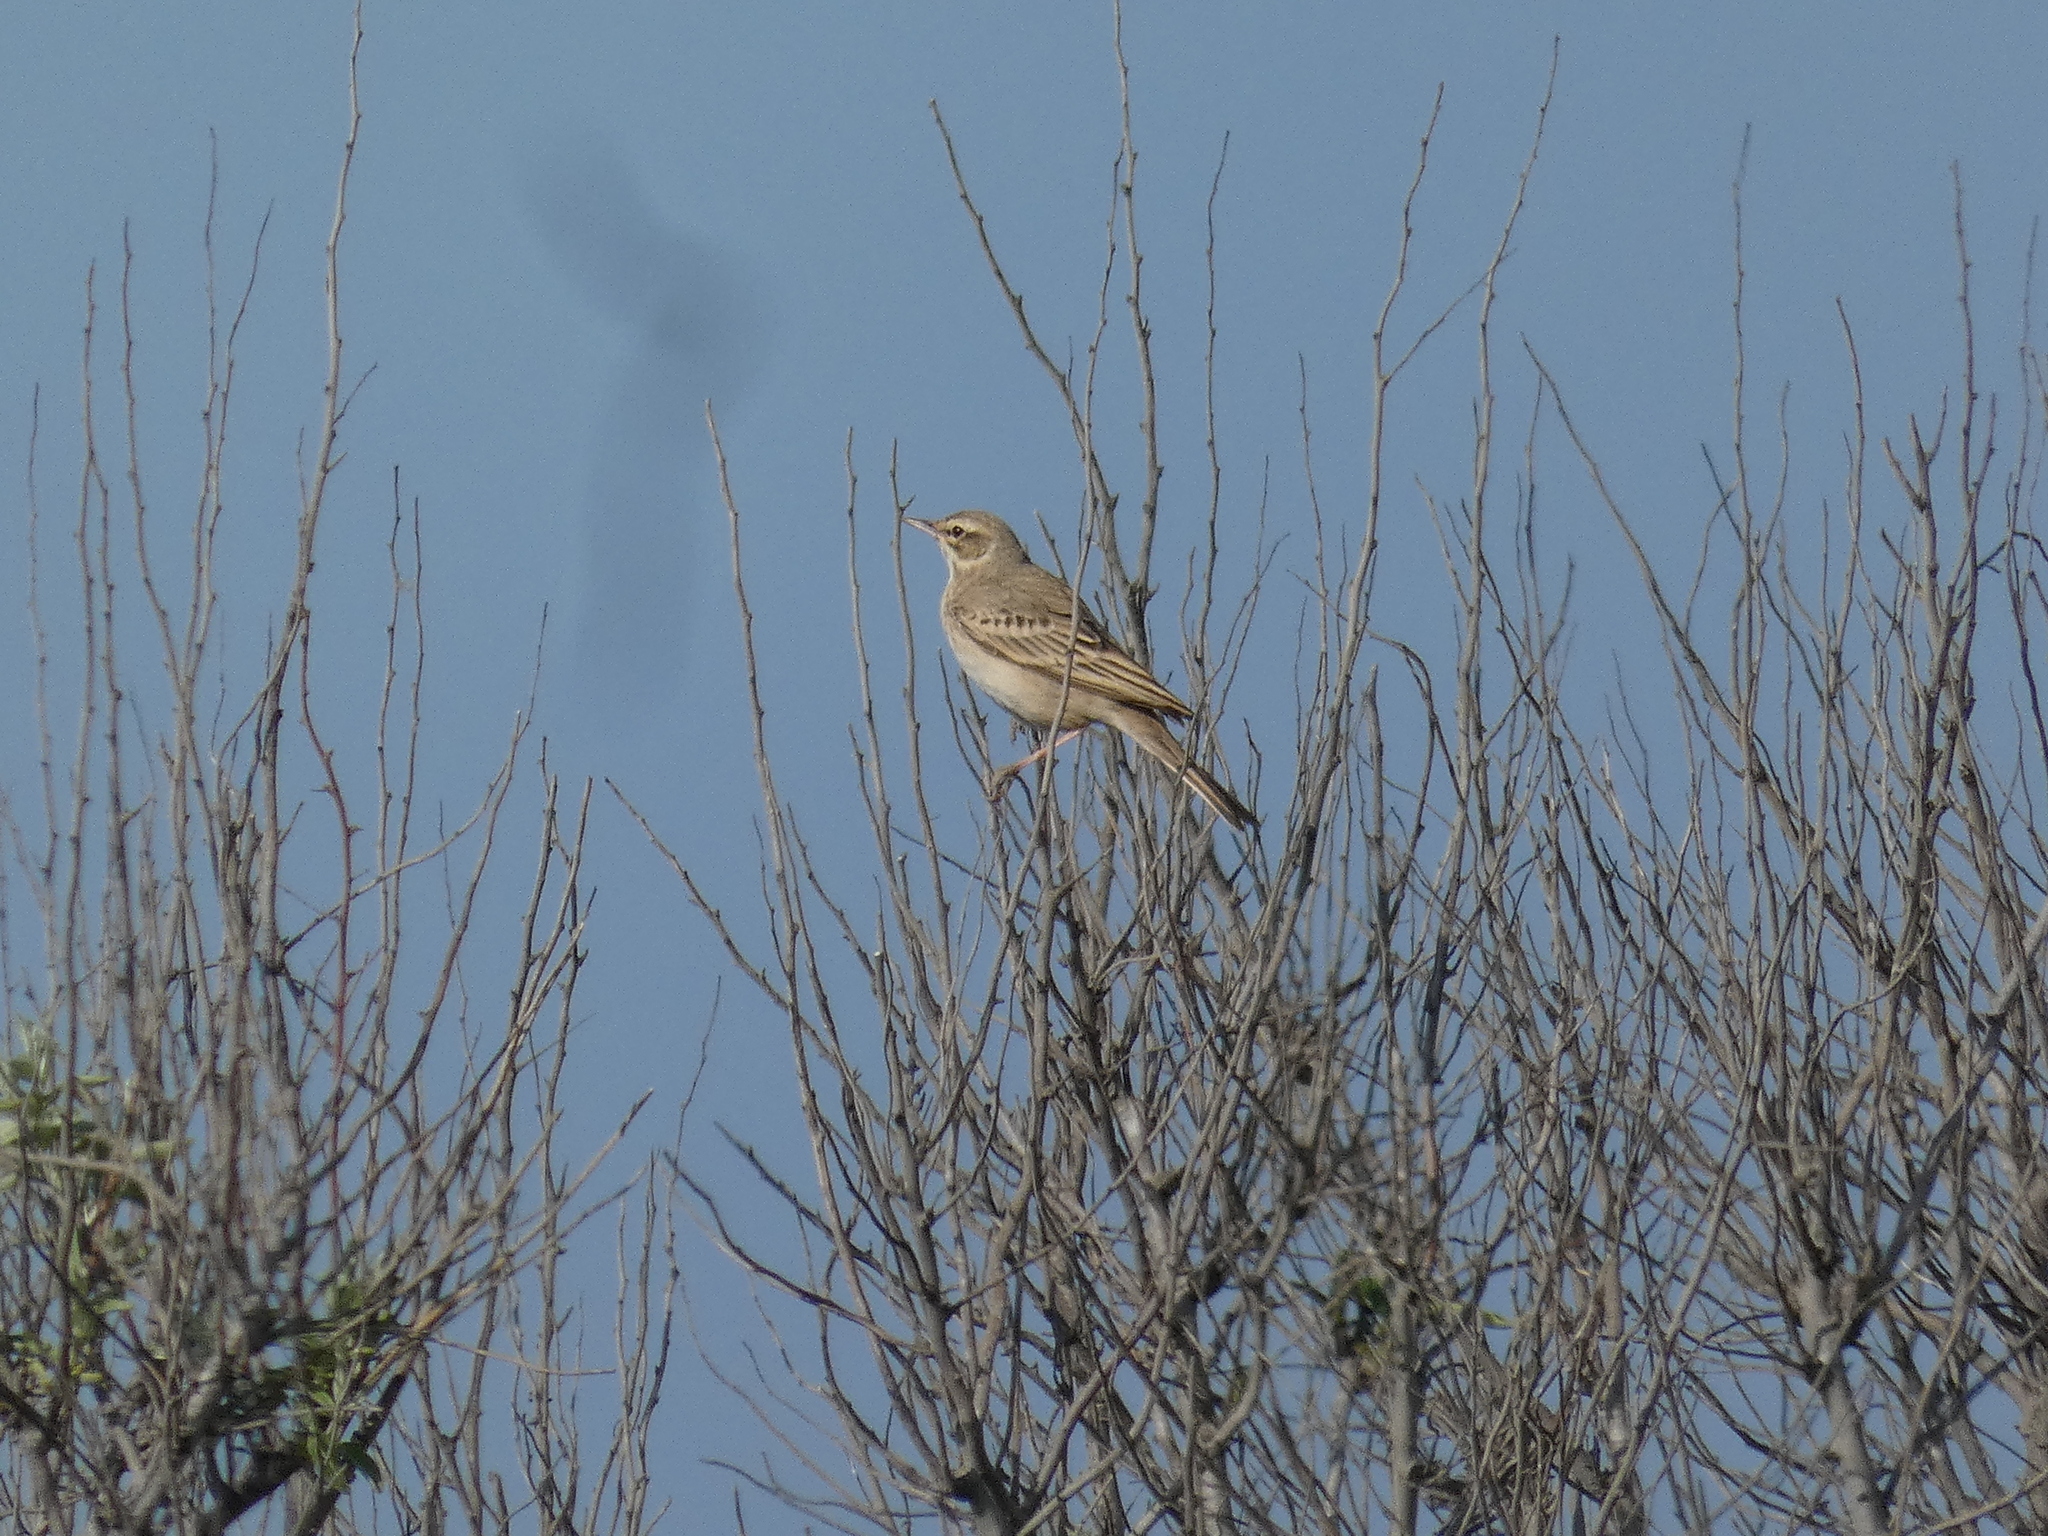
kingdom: Animalia
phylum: Chordata
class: Aves
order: Passeriformes
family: Motacillidae
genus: Anthus
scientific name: Anthus campestris
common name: Tawny pipit
